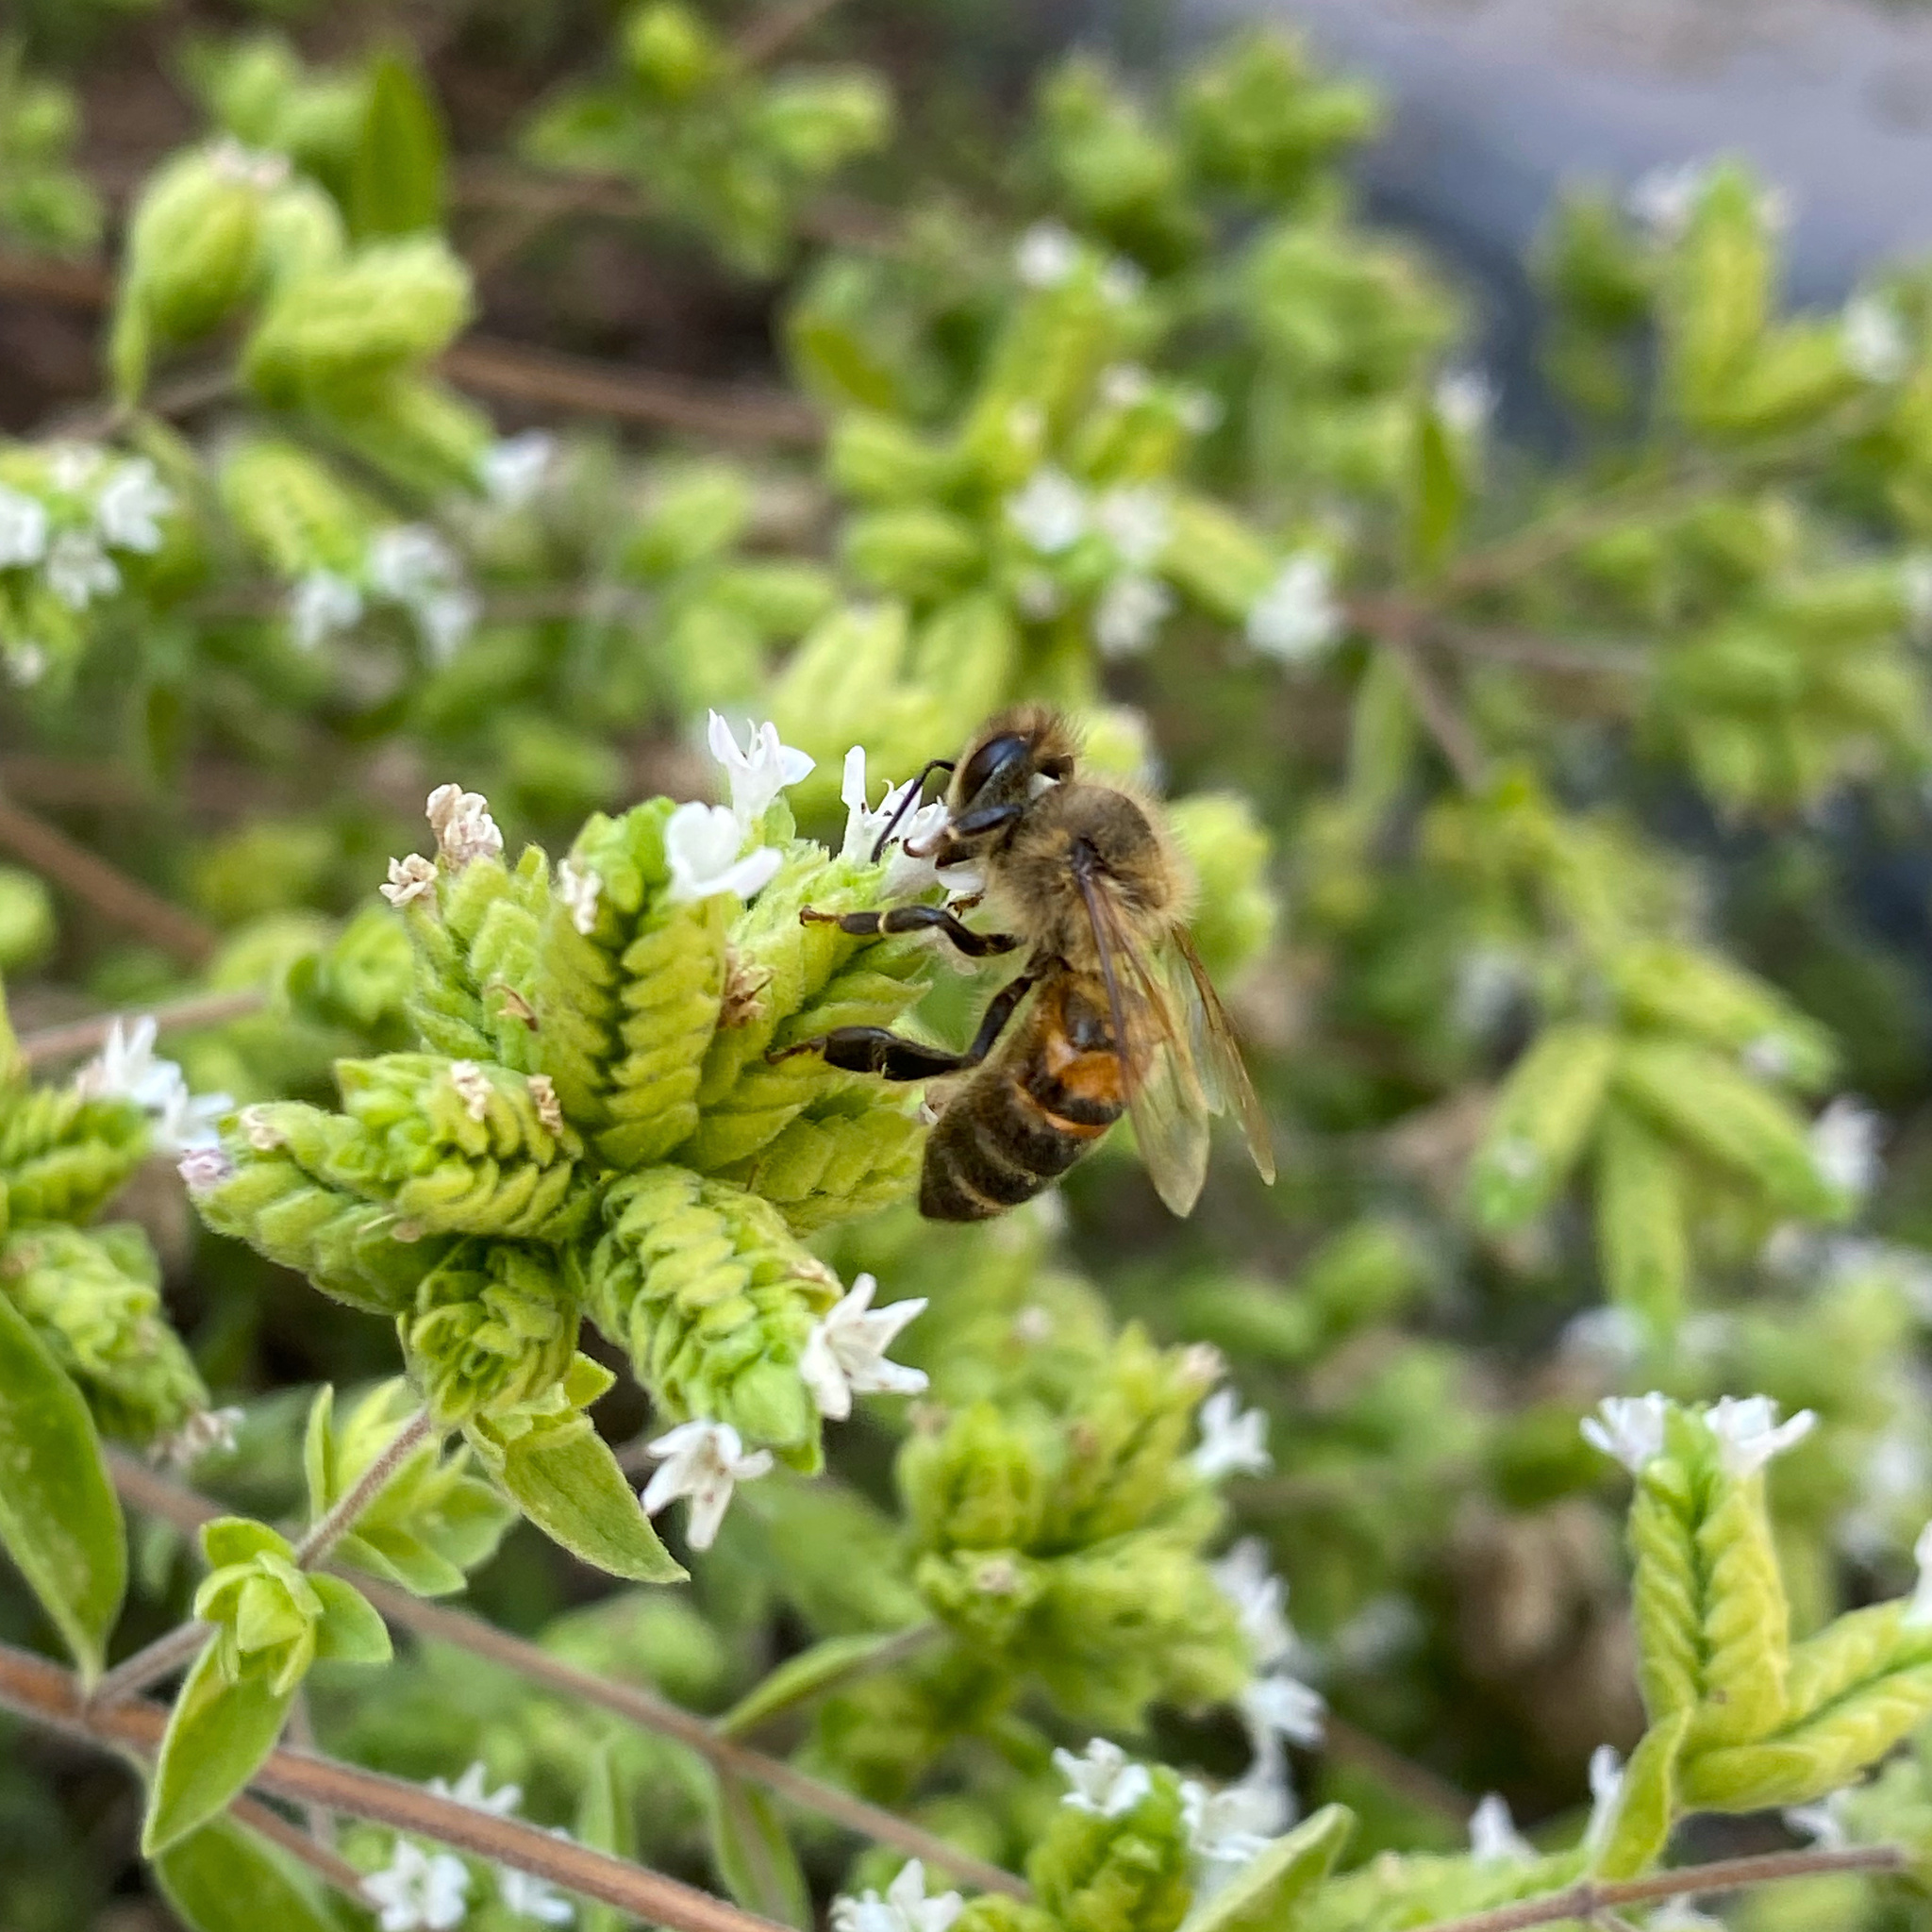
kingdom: Animalia
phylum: Arthropoda
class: Insecta
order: Hymenoptera
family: Apidae
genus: Apis
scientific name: Apis mellifera
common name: Honey bee
